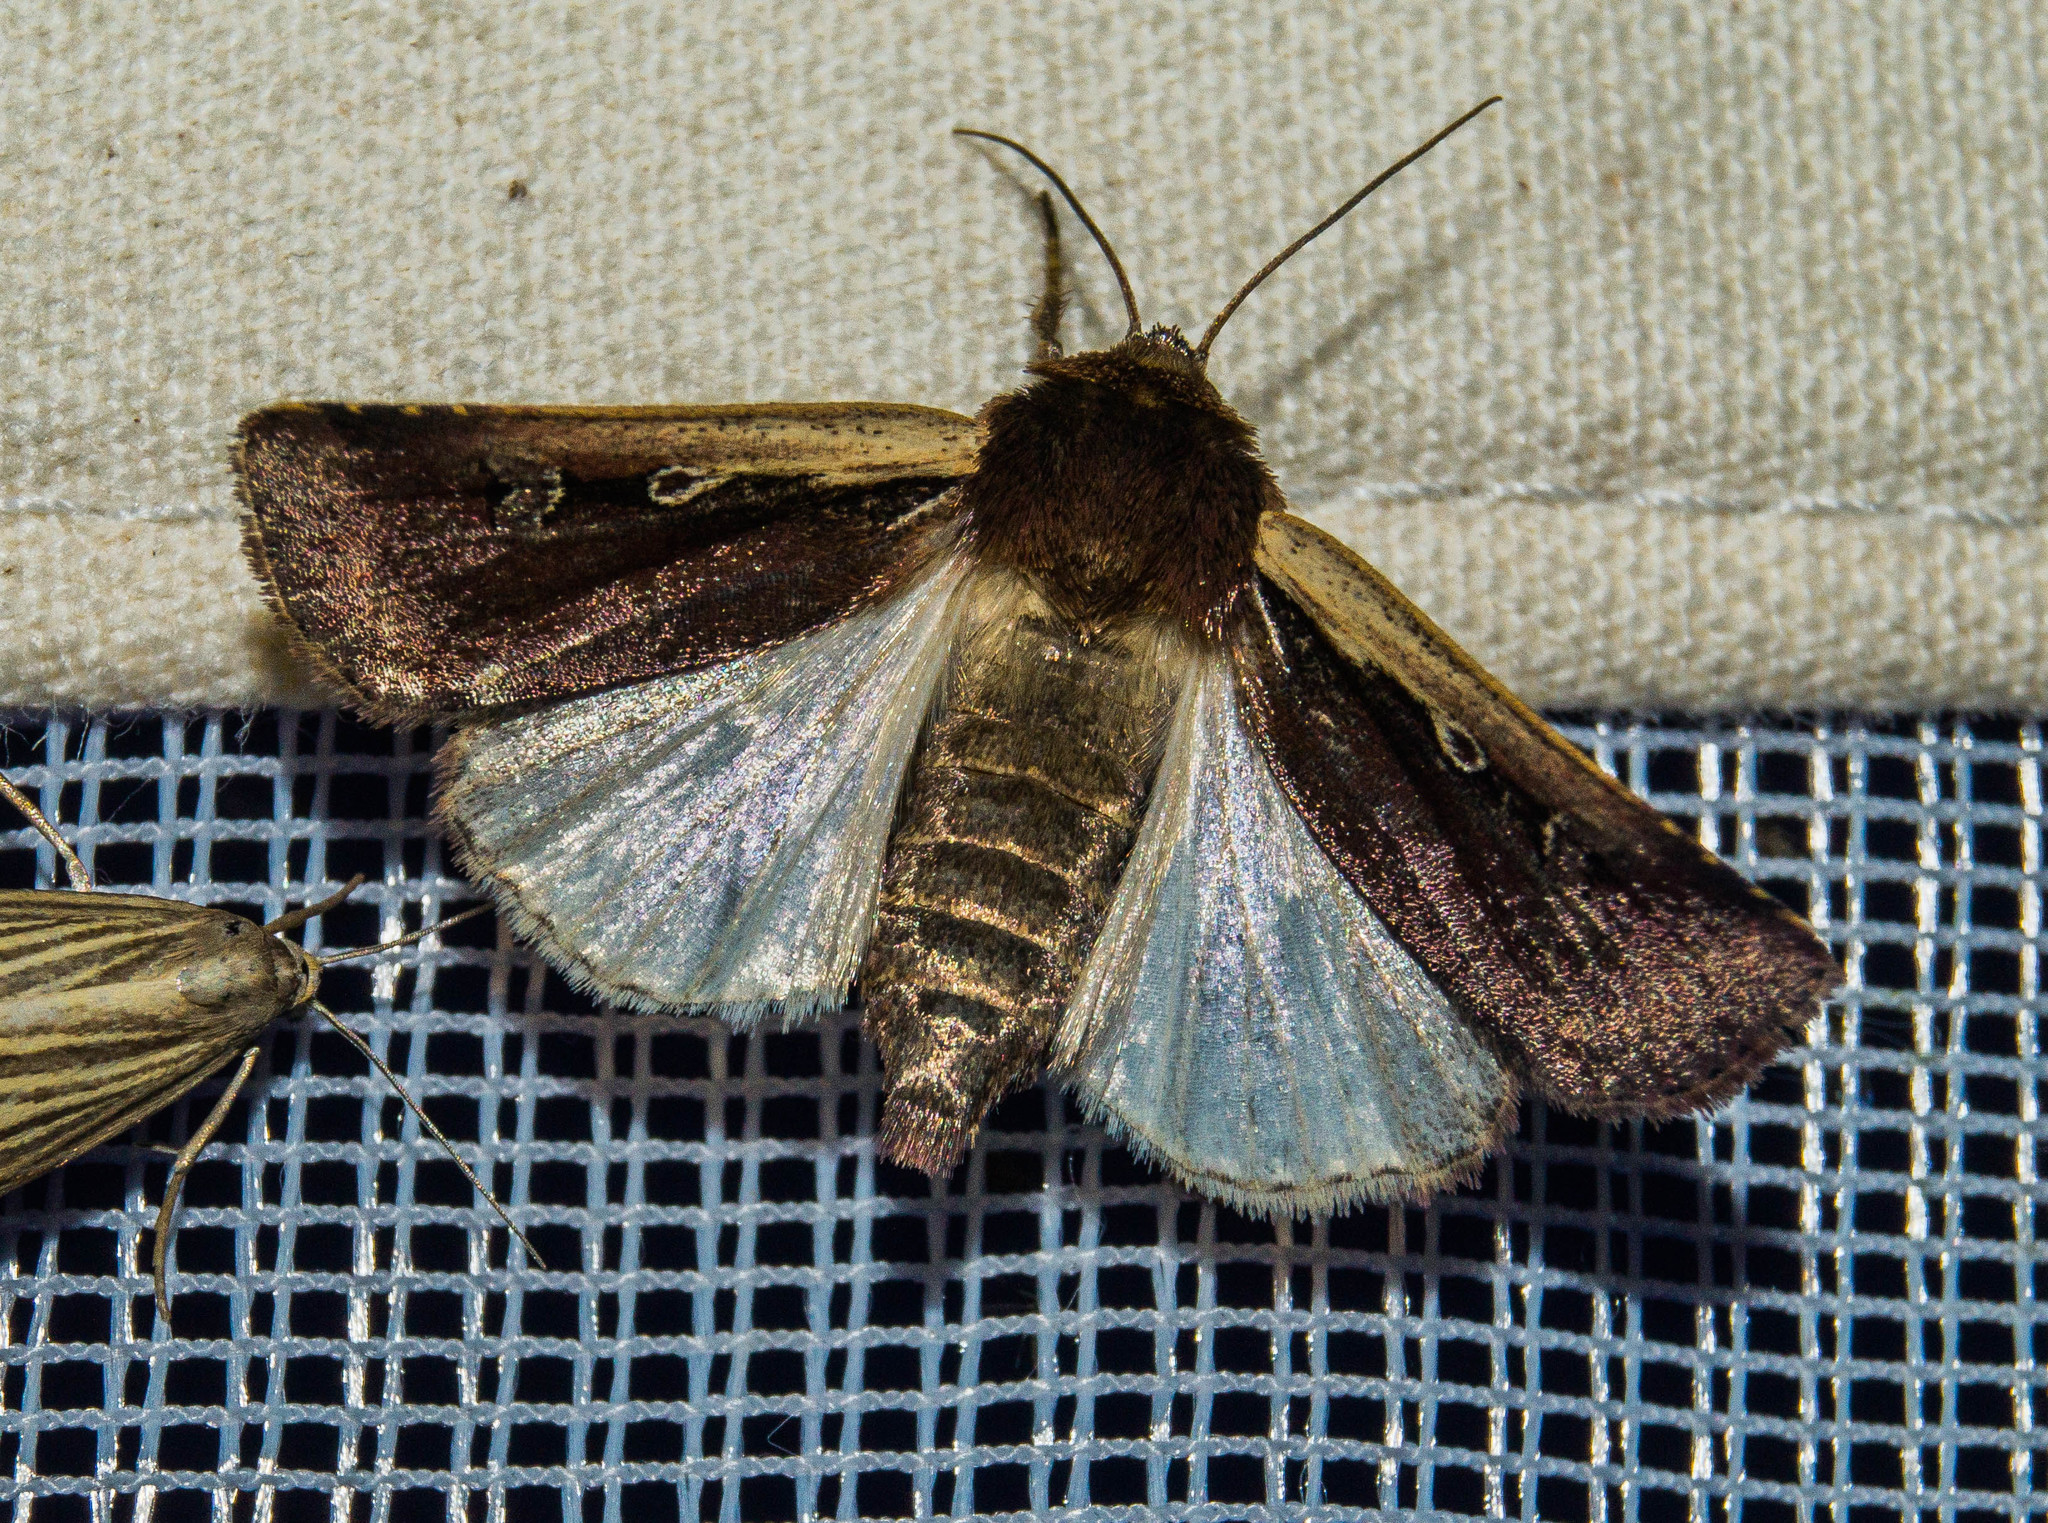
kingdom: Animalia
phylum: Arthropoda
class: Insecta
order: Lepidoptera
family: Noctuidae
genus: Ochropleura
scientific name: Ochropleura plecta
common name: Flame shoulder
